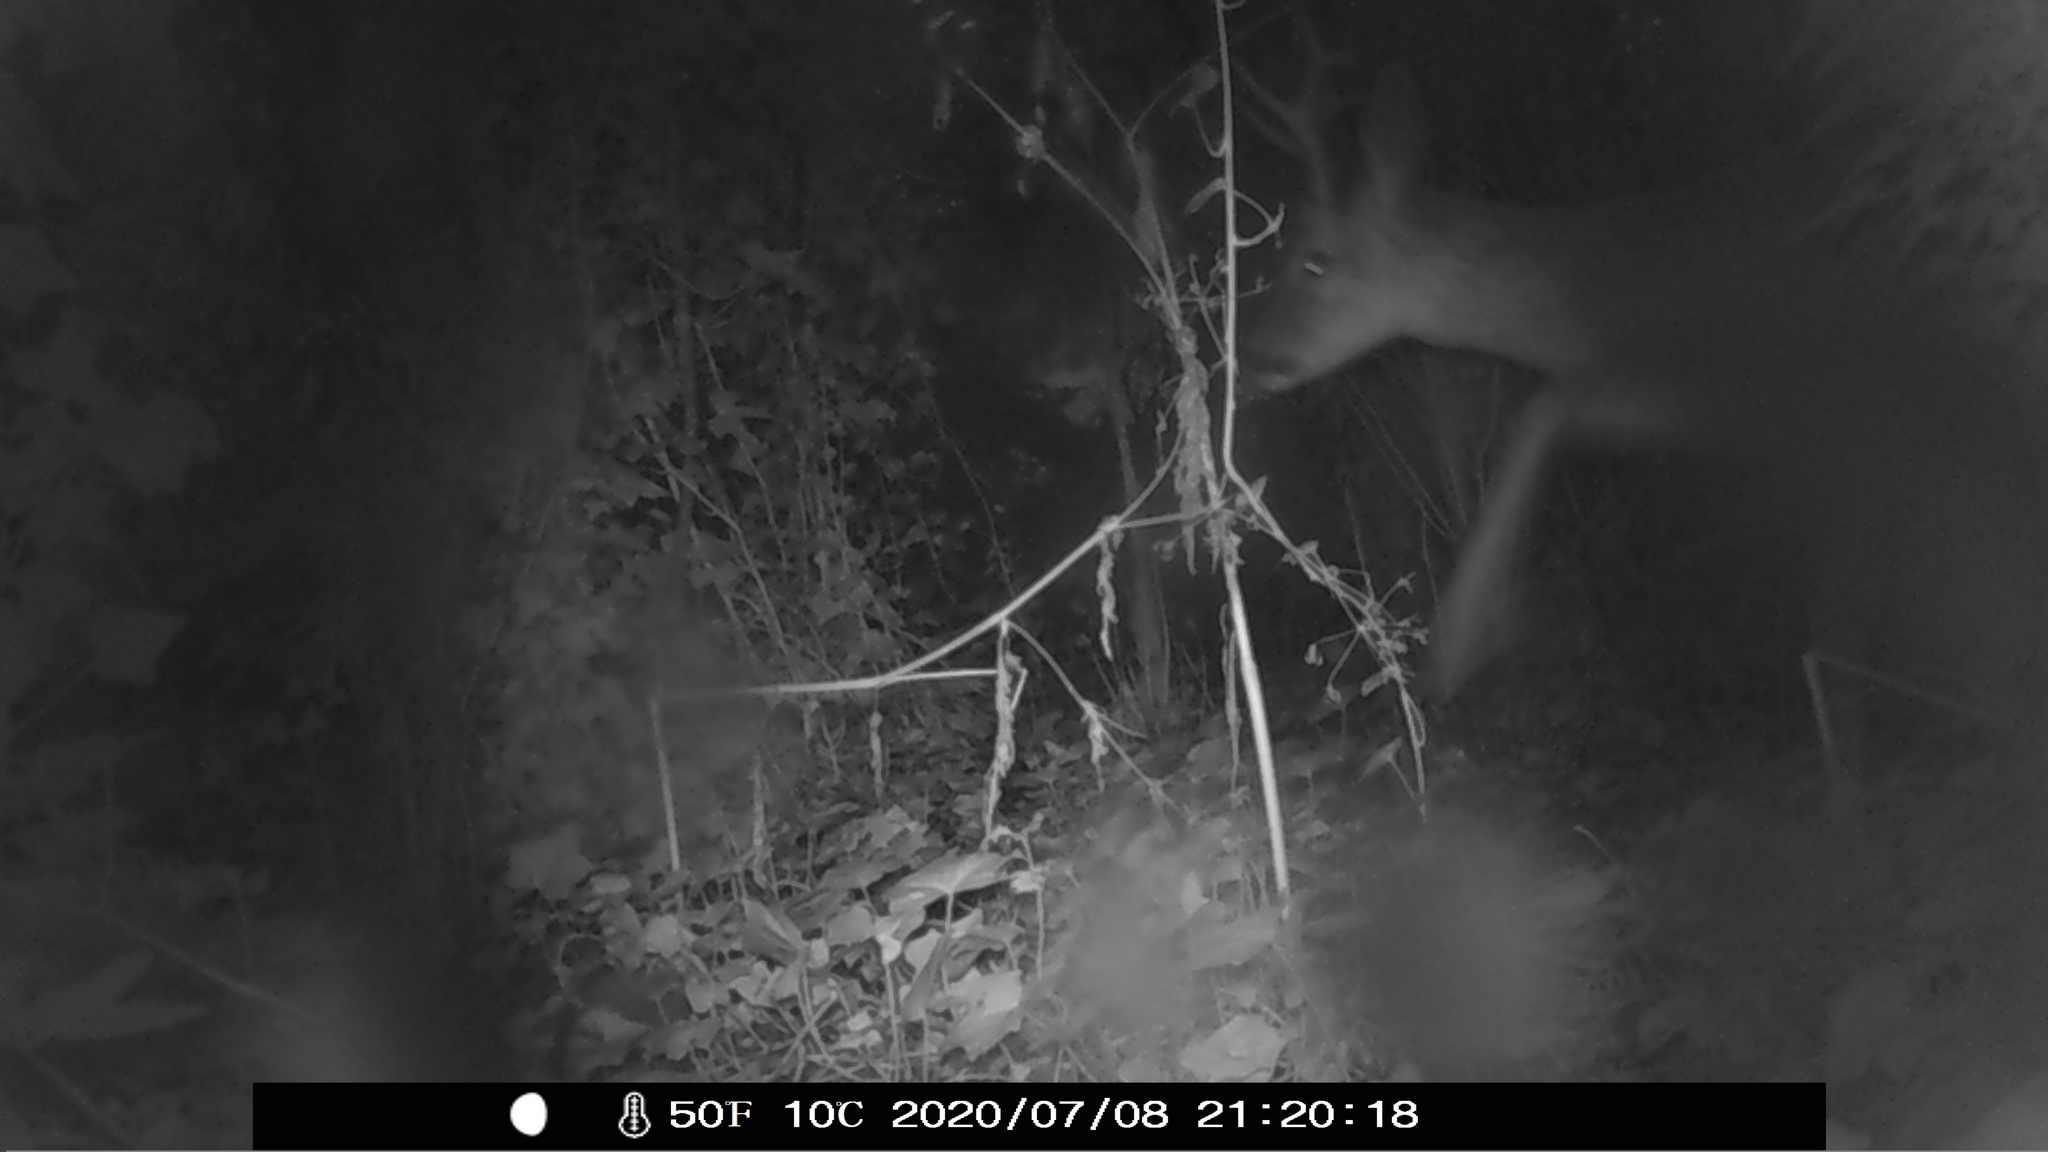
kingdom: Animalia
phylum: Chordata
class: Mammalia
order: Artiodactyla
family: Cervidae
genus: Capreolus
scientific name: Capreolus capreolus
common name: Western roe deer
